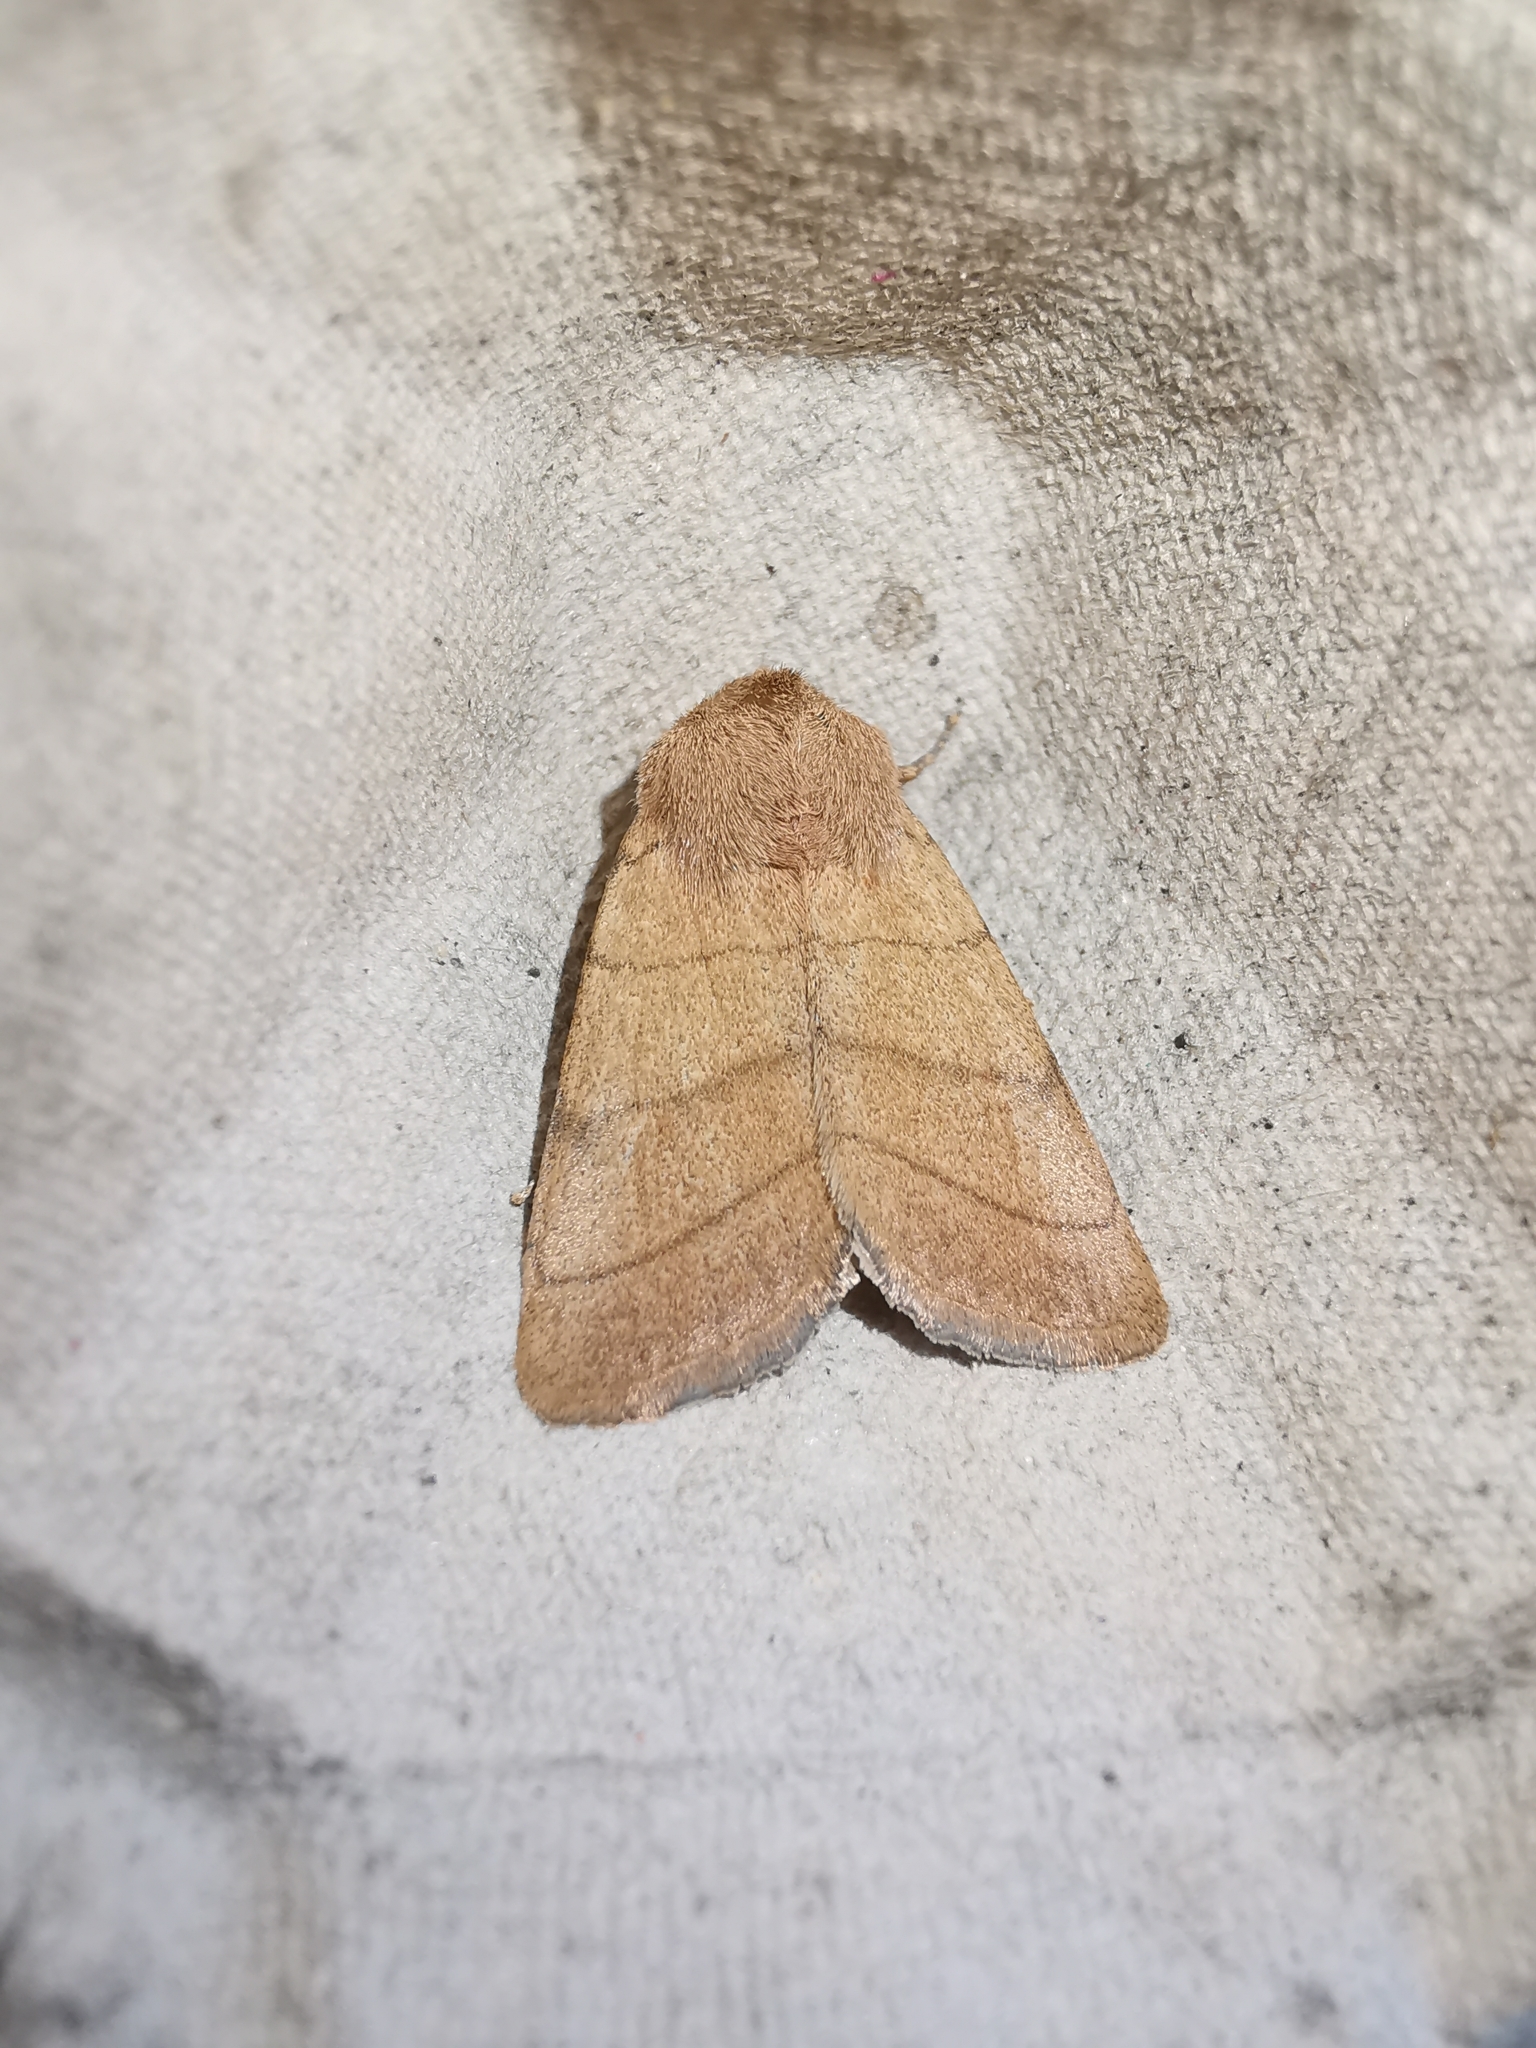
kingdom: Animalia
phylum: Arthropoda
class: Insecta
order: Lepidoptera
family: Noctuidae
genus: Charanyca
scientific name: Charanyca trigrammica
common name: Treble lines
